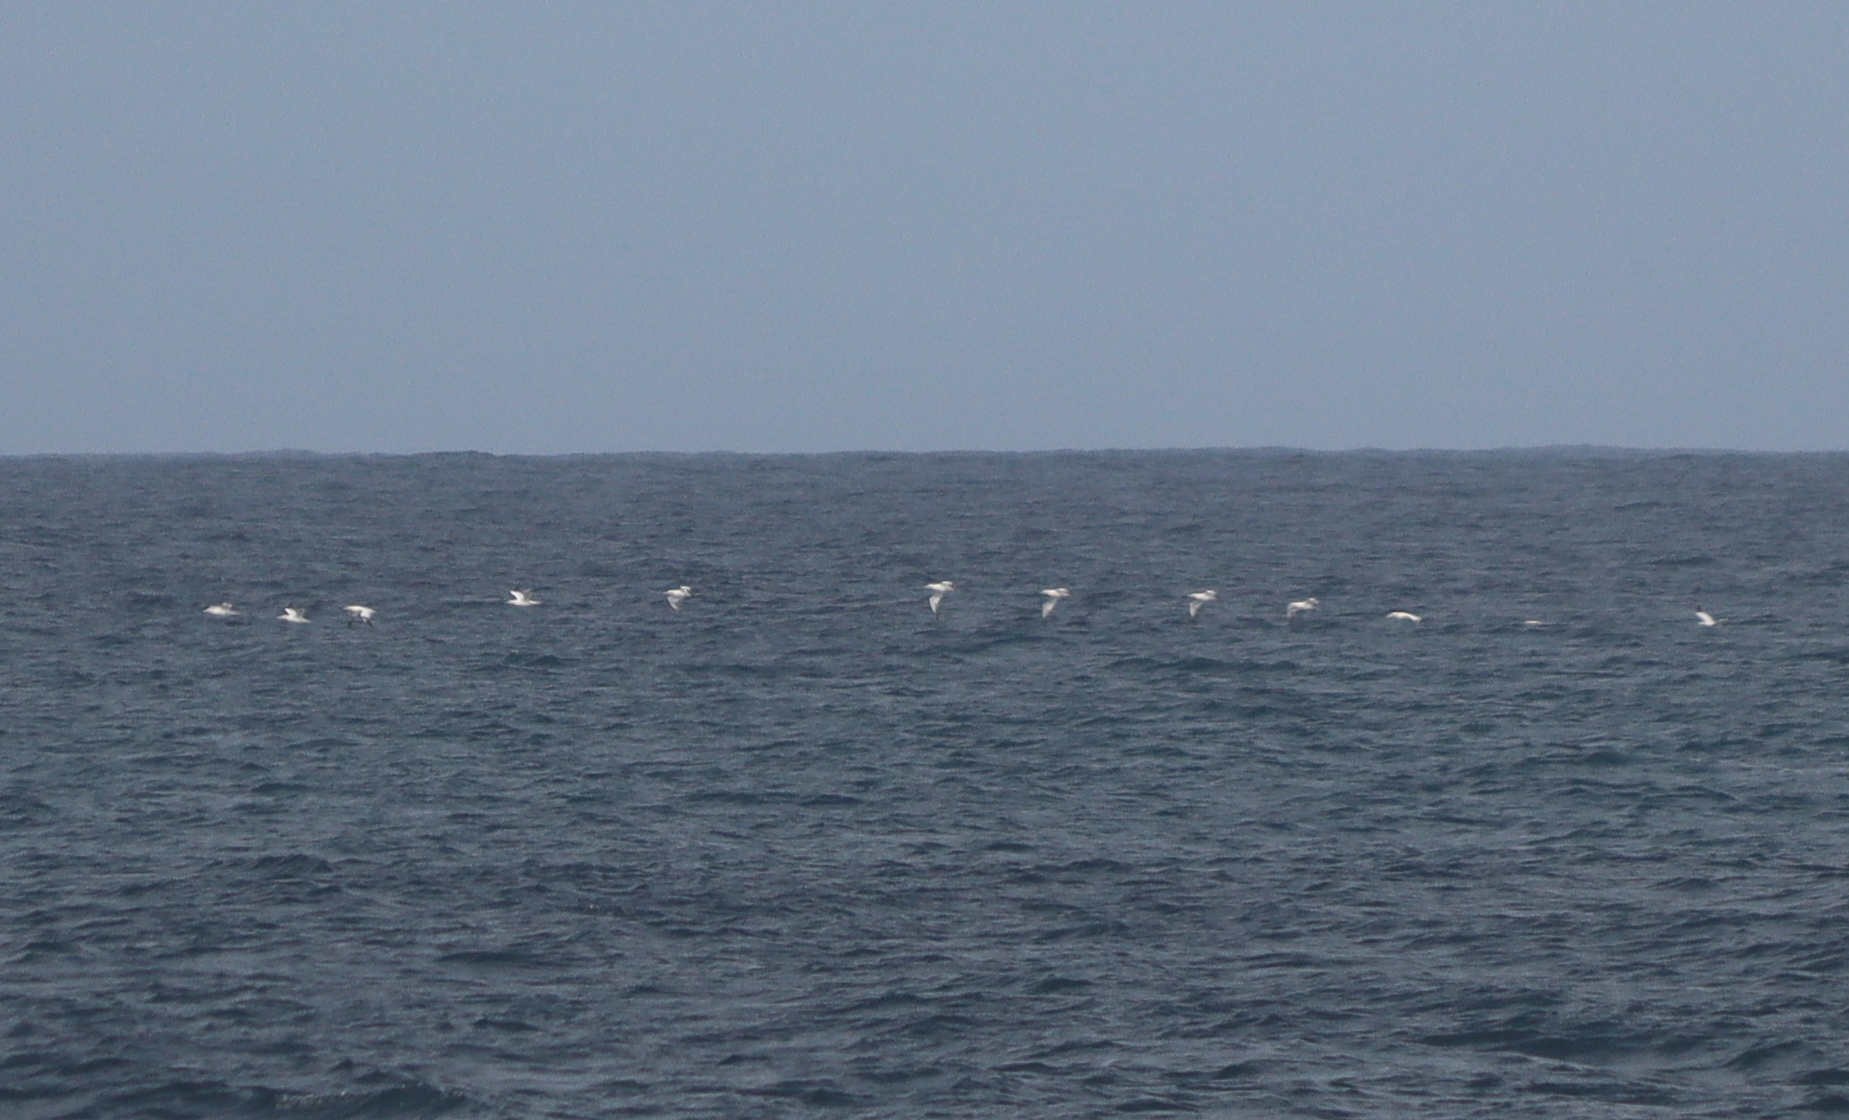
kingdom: Animalia
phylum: Chordata
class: Aves
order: Suliformes
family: Sulidae
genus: Morus
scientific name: Morus bassanus
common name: Northern gannet
